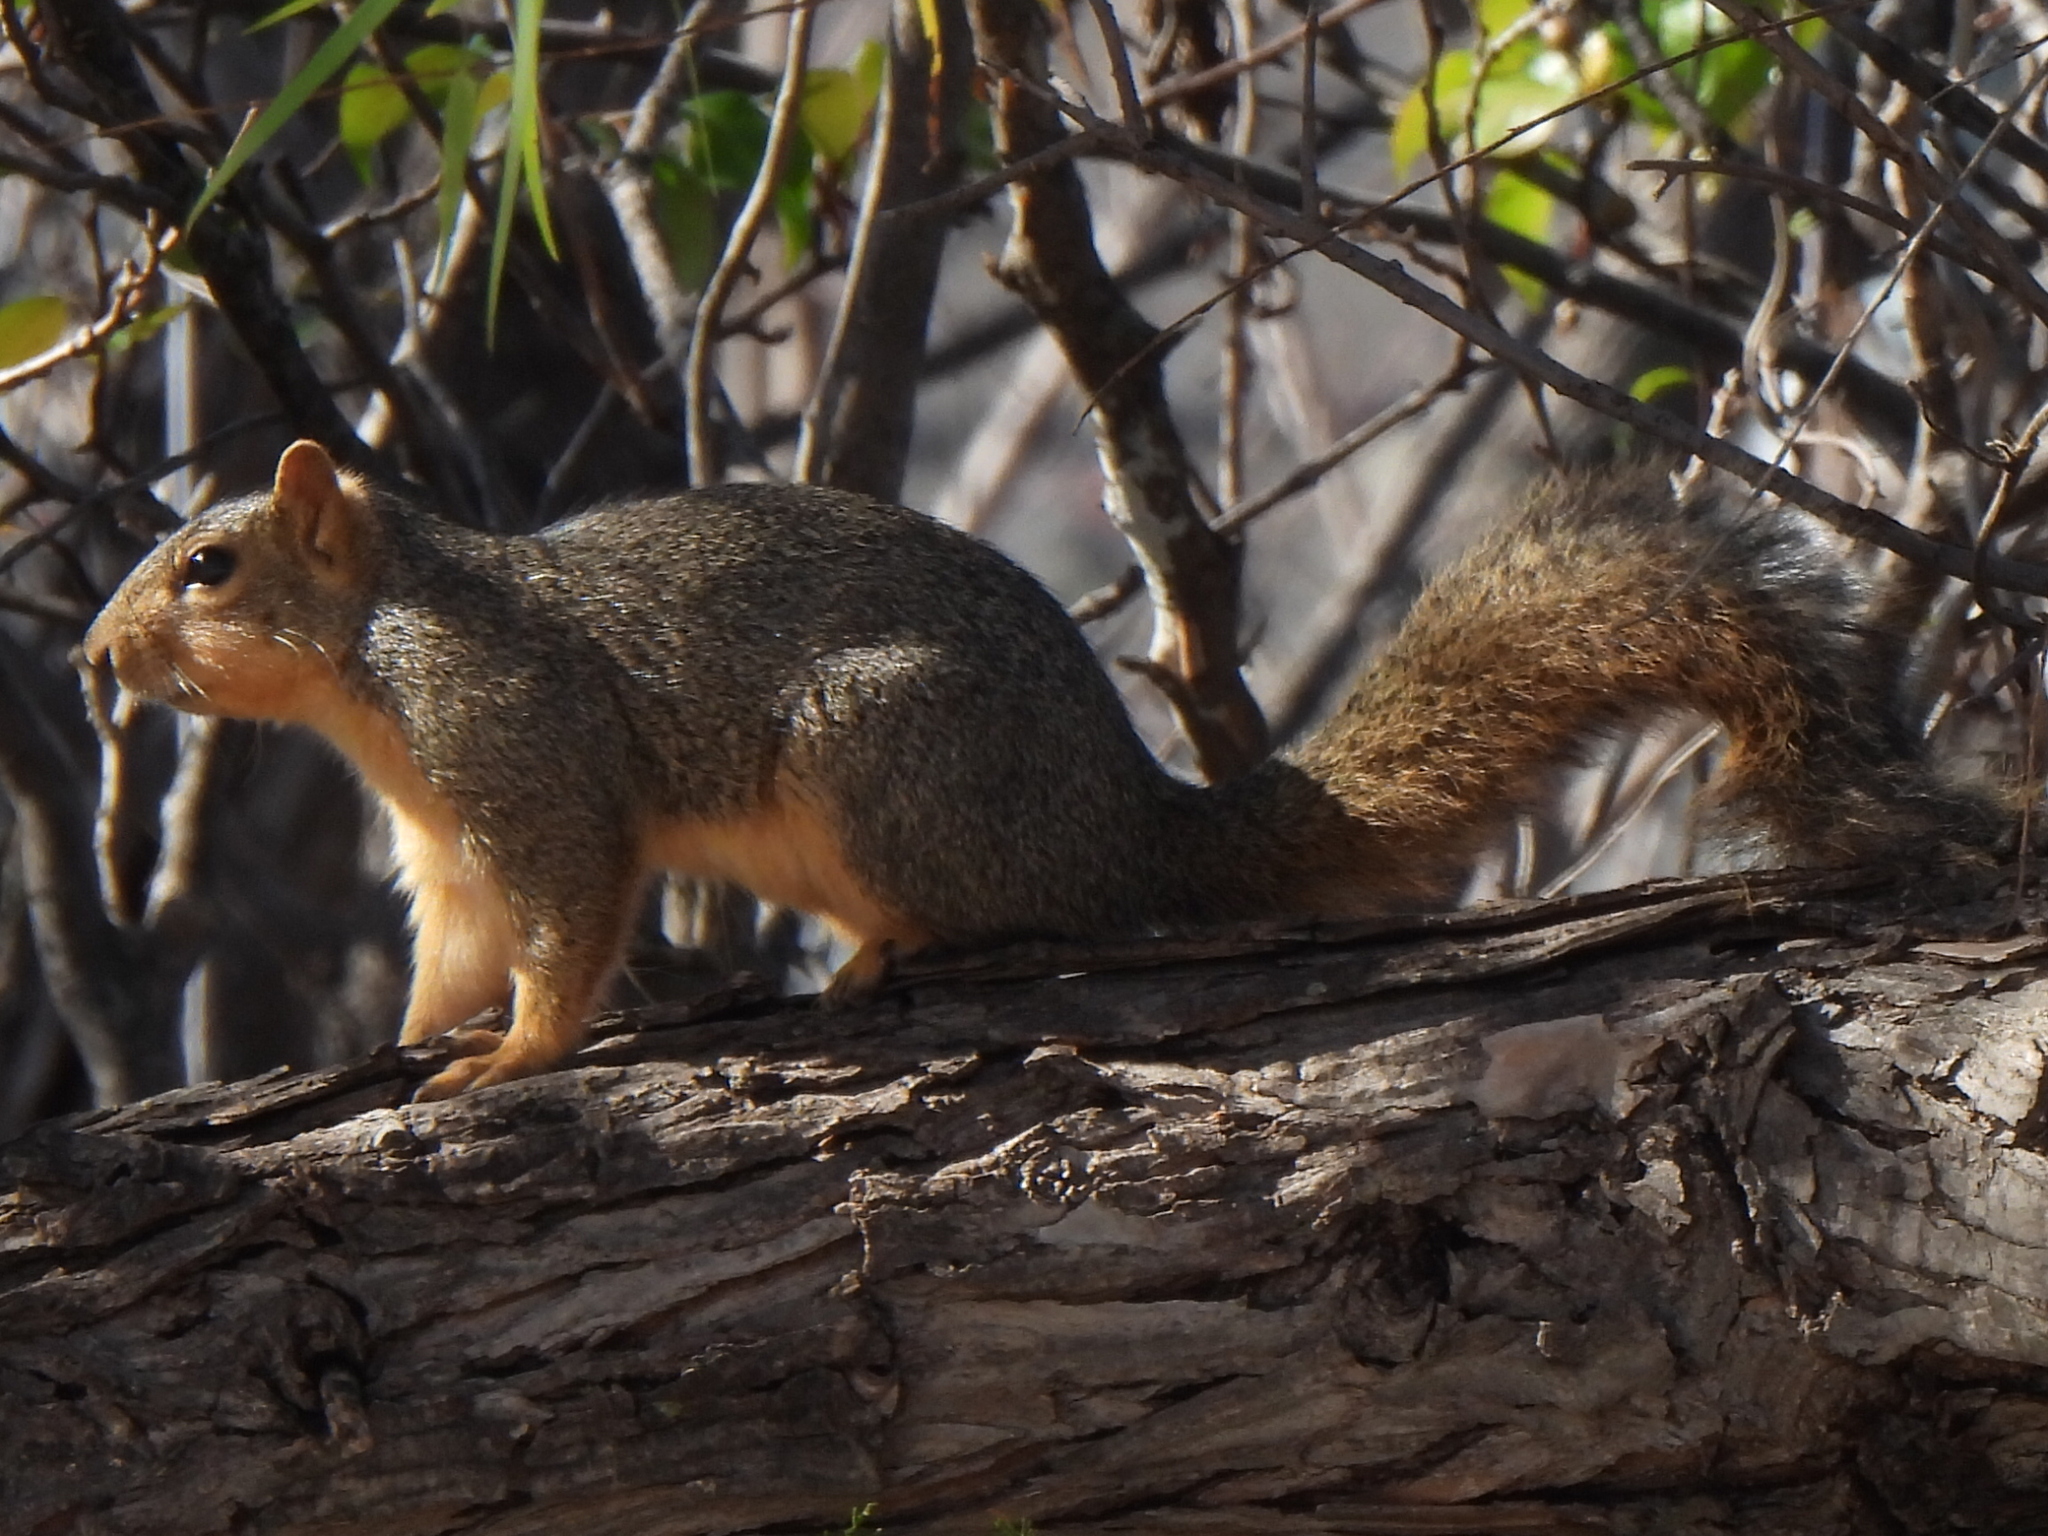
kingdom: Animalia
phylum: Chordata
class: Mammalia
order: Rodentia
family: Sciuridae
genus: Sciurus
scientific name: Sciurus niger
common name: Fox squirrel
